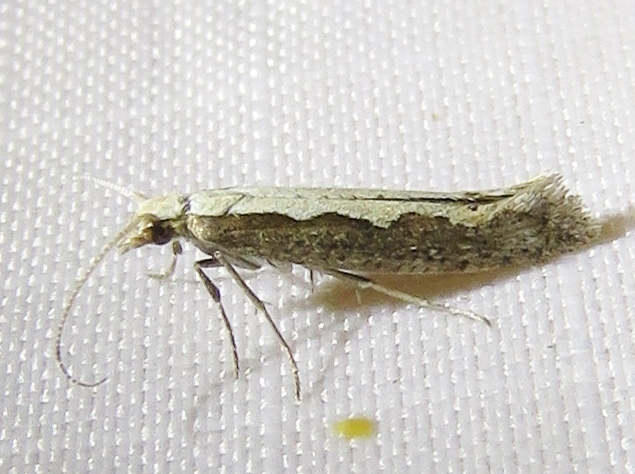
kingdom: Animalia
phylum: Arthropoda
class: Insecta
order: Lepidoptera
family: Plutellidae
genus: Plutella
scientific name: Plutella xylostella
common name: Diamond-back moth
